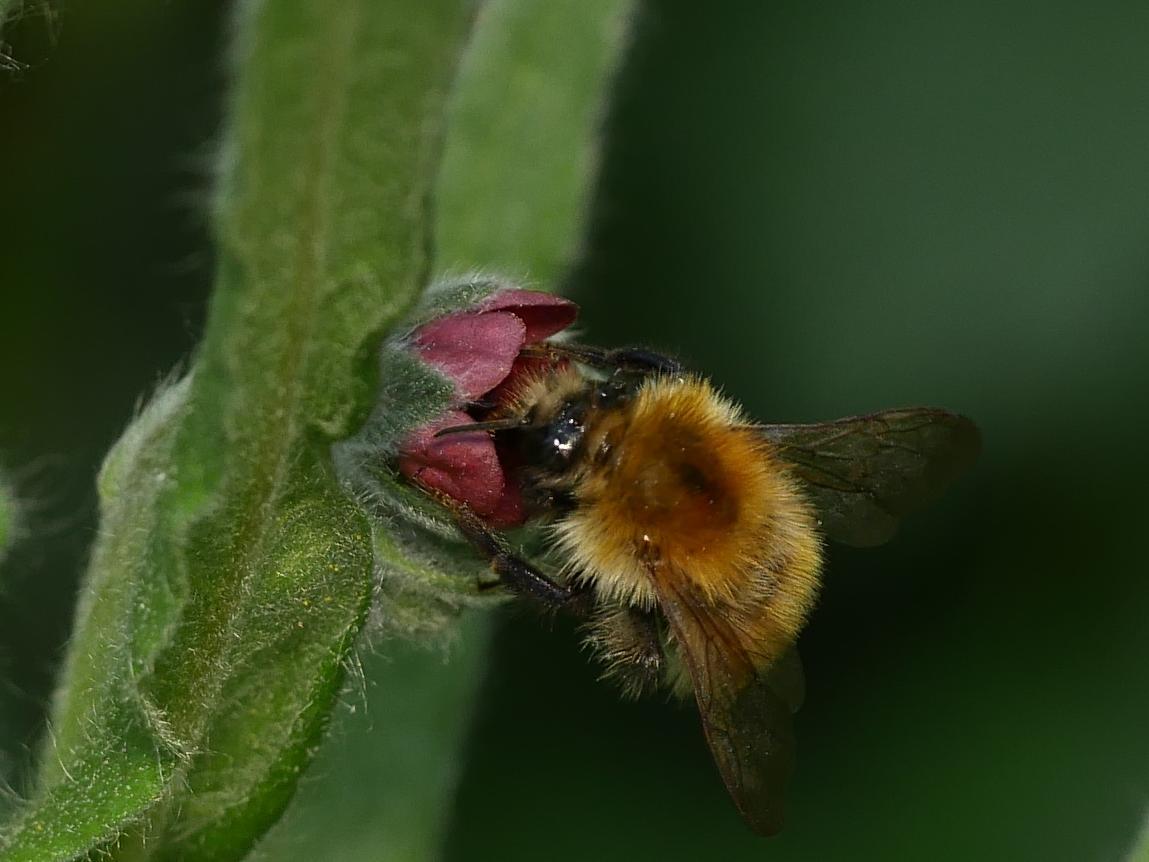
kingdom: Animalia
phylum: Arthropoda
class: Insecta
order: Hymenoptera
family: Apidae
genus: Bombus
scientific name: Bombus pascuorum
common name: Common carder bee
